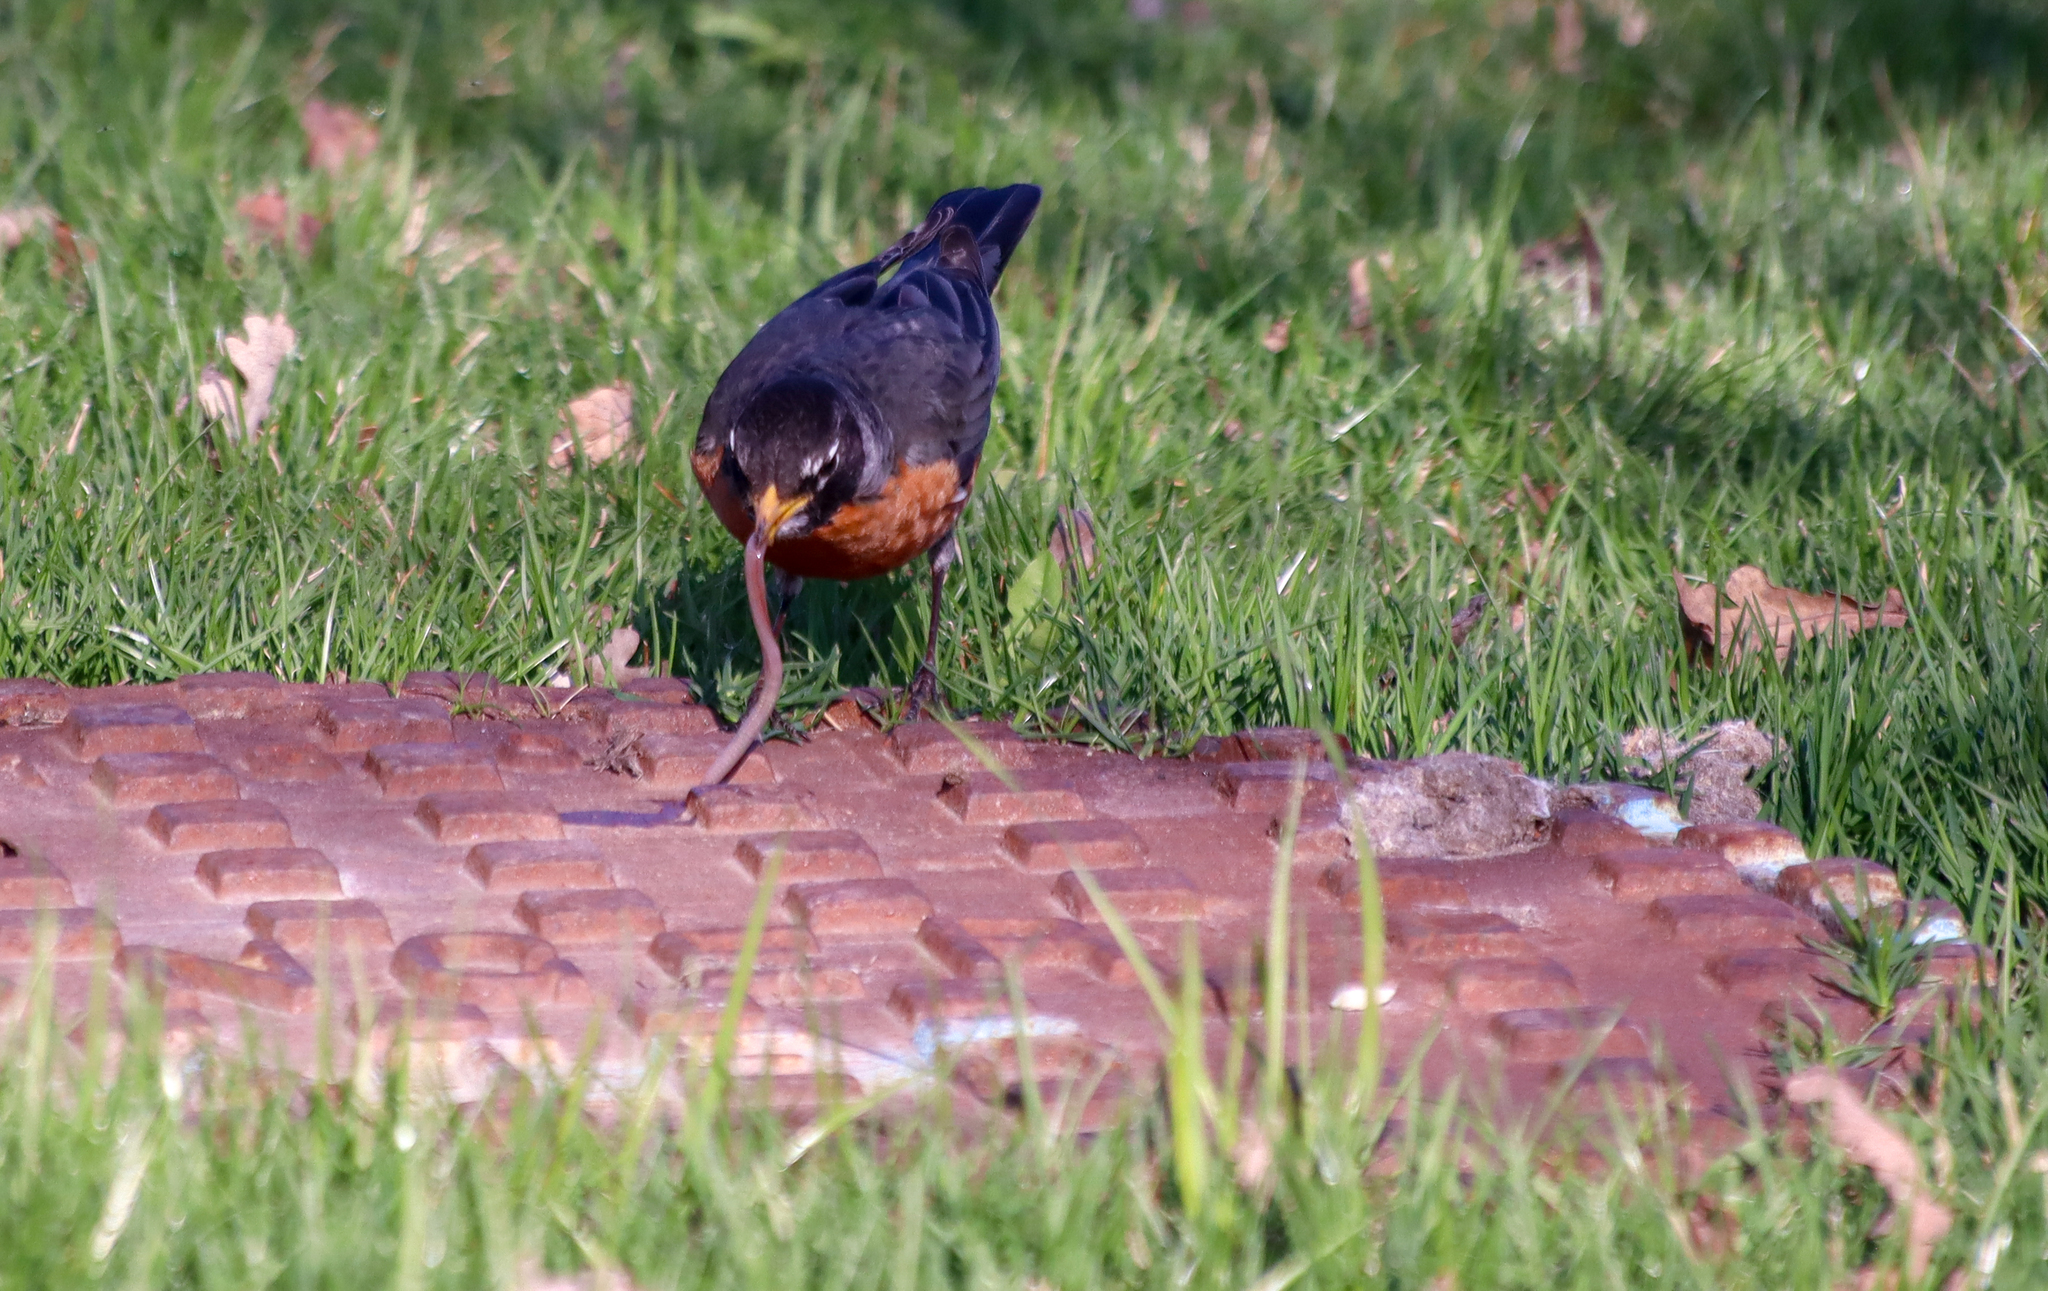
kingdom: Animalia
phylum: Chordata
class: Aves
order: Passeriformes
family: Turdidae
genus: Turdus
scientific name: Turdus migratorius
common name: American robin
